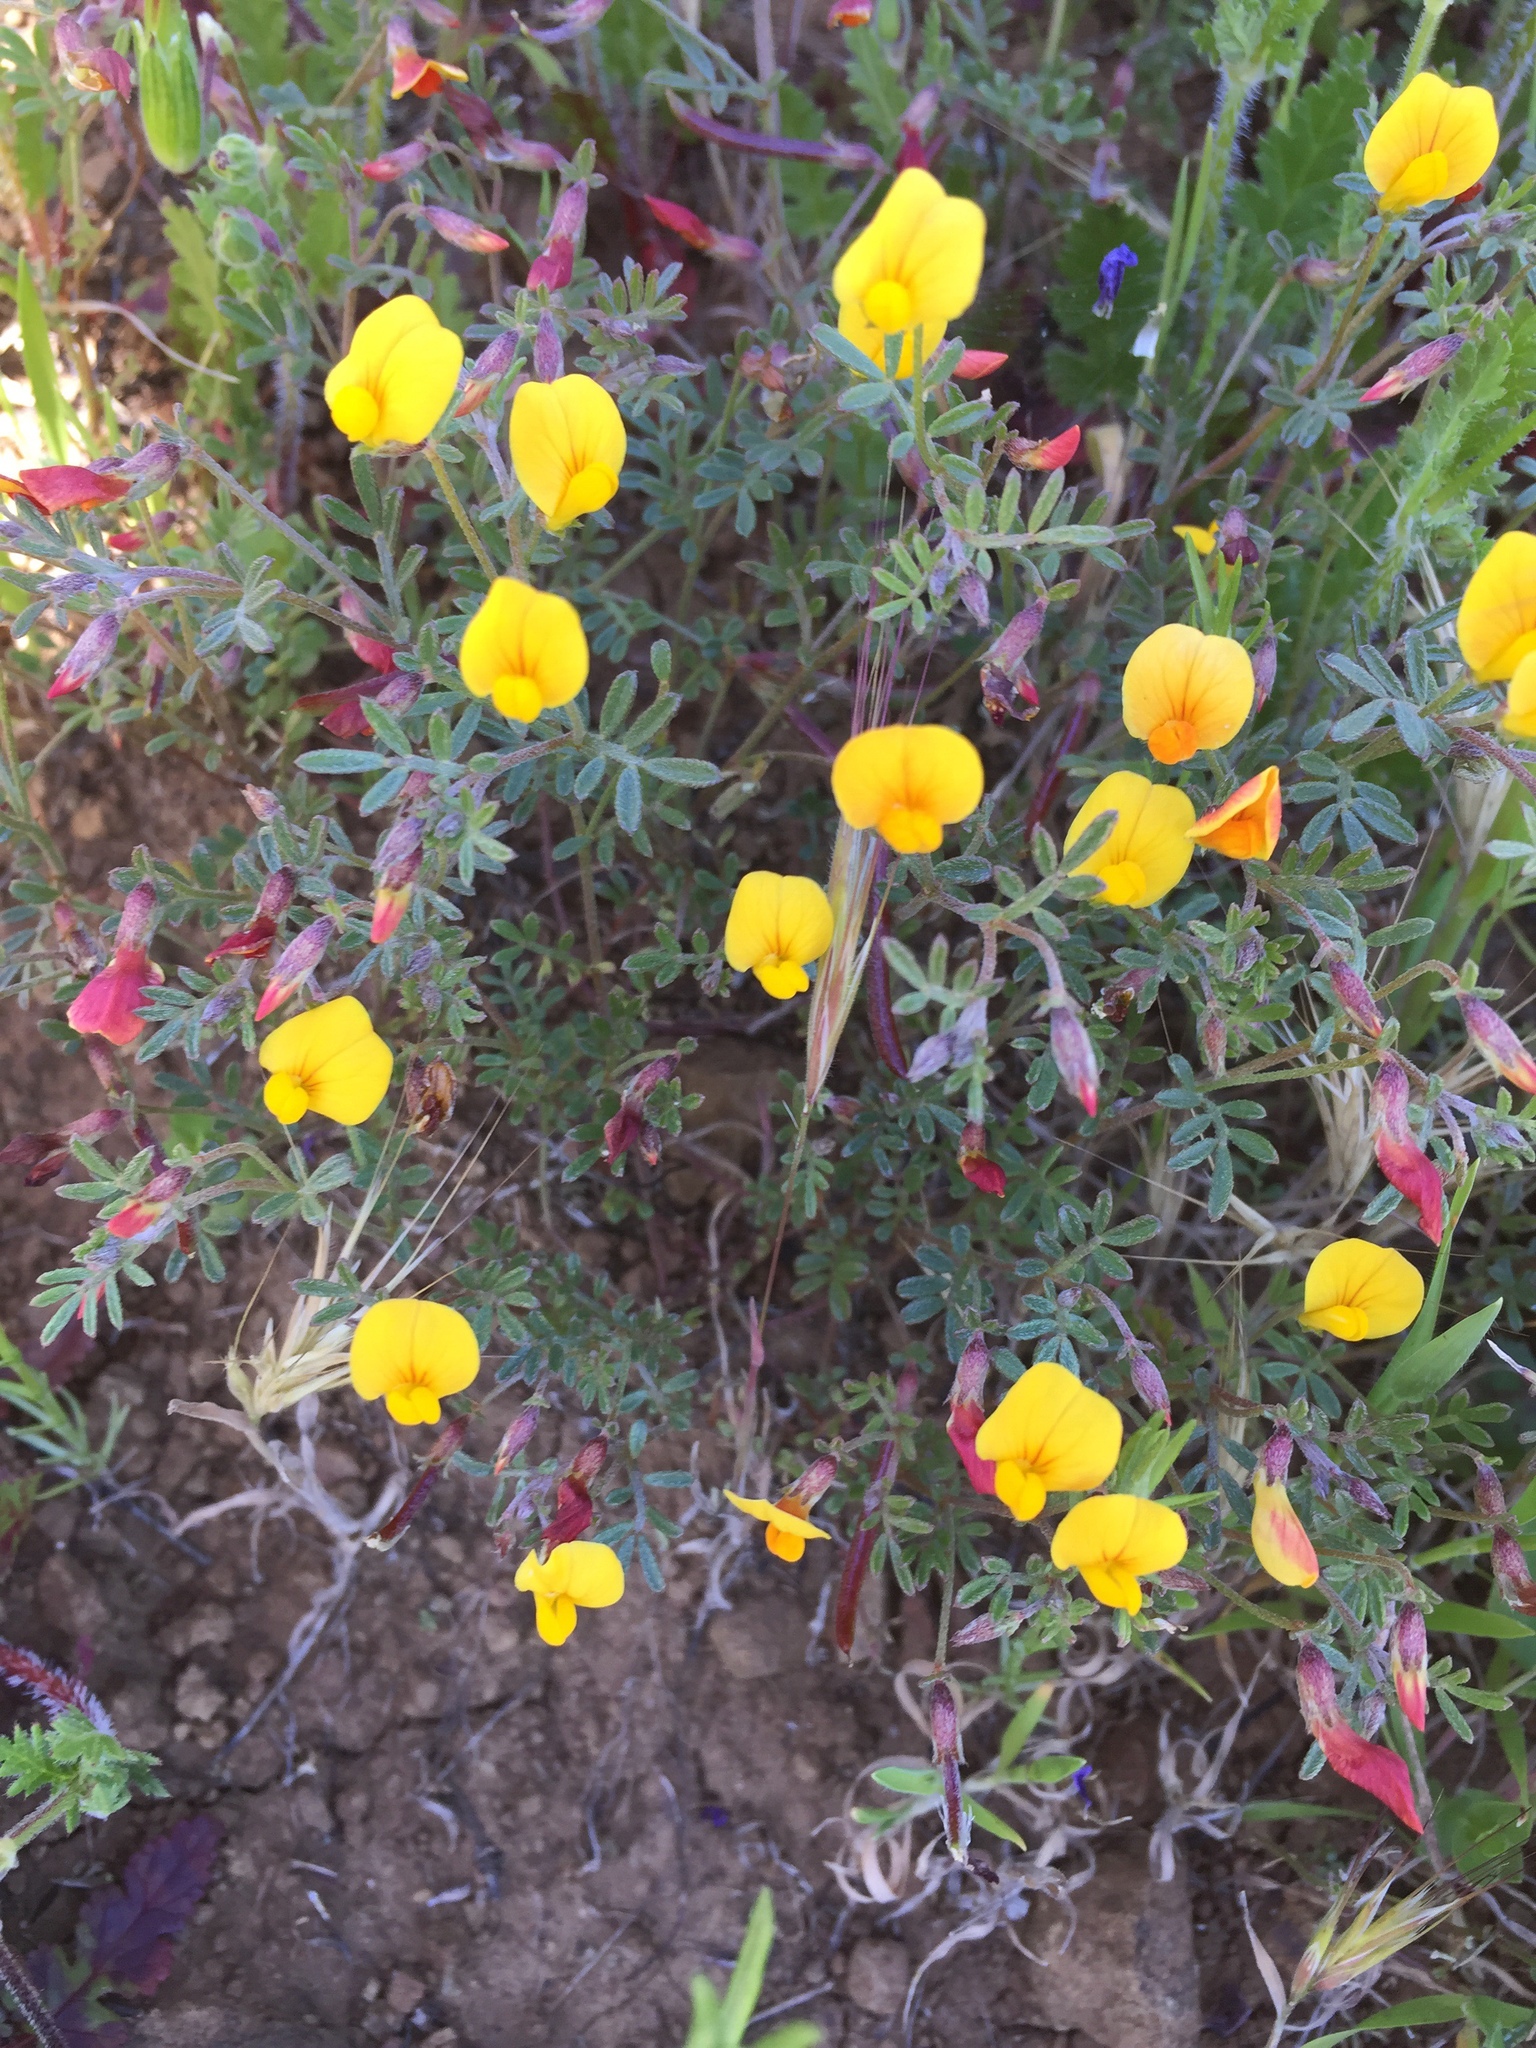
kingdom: Plantae
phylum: Tracheophyta
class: Magnoliopsida
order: Fabales
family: Fabaceae
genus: Acmispon
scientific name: Acmispon strigosus
